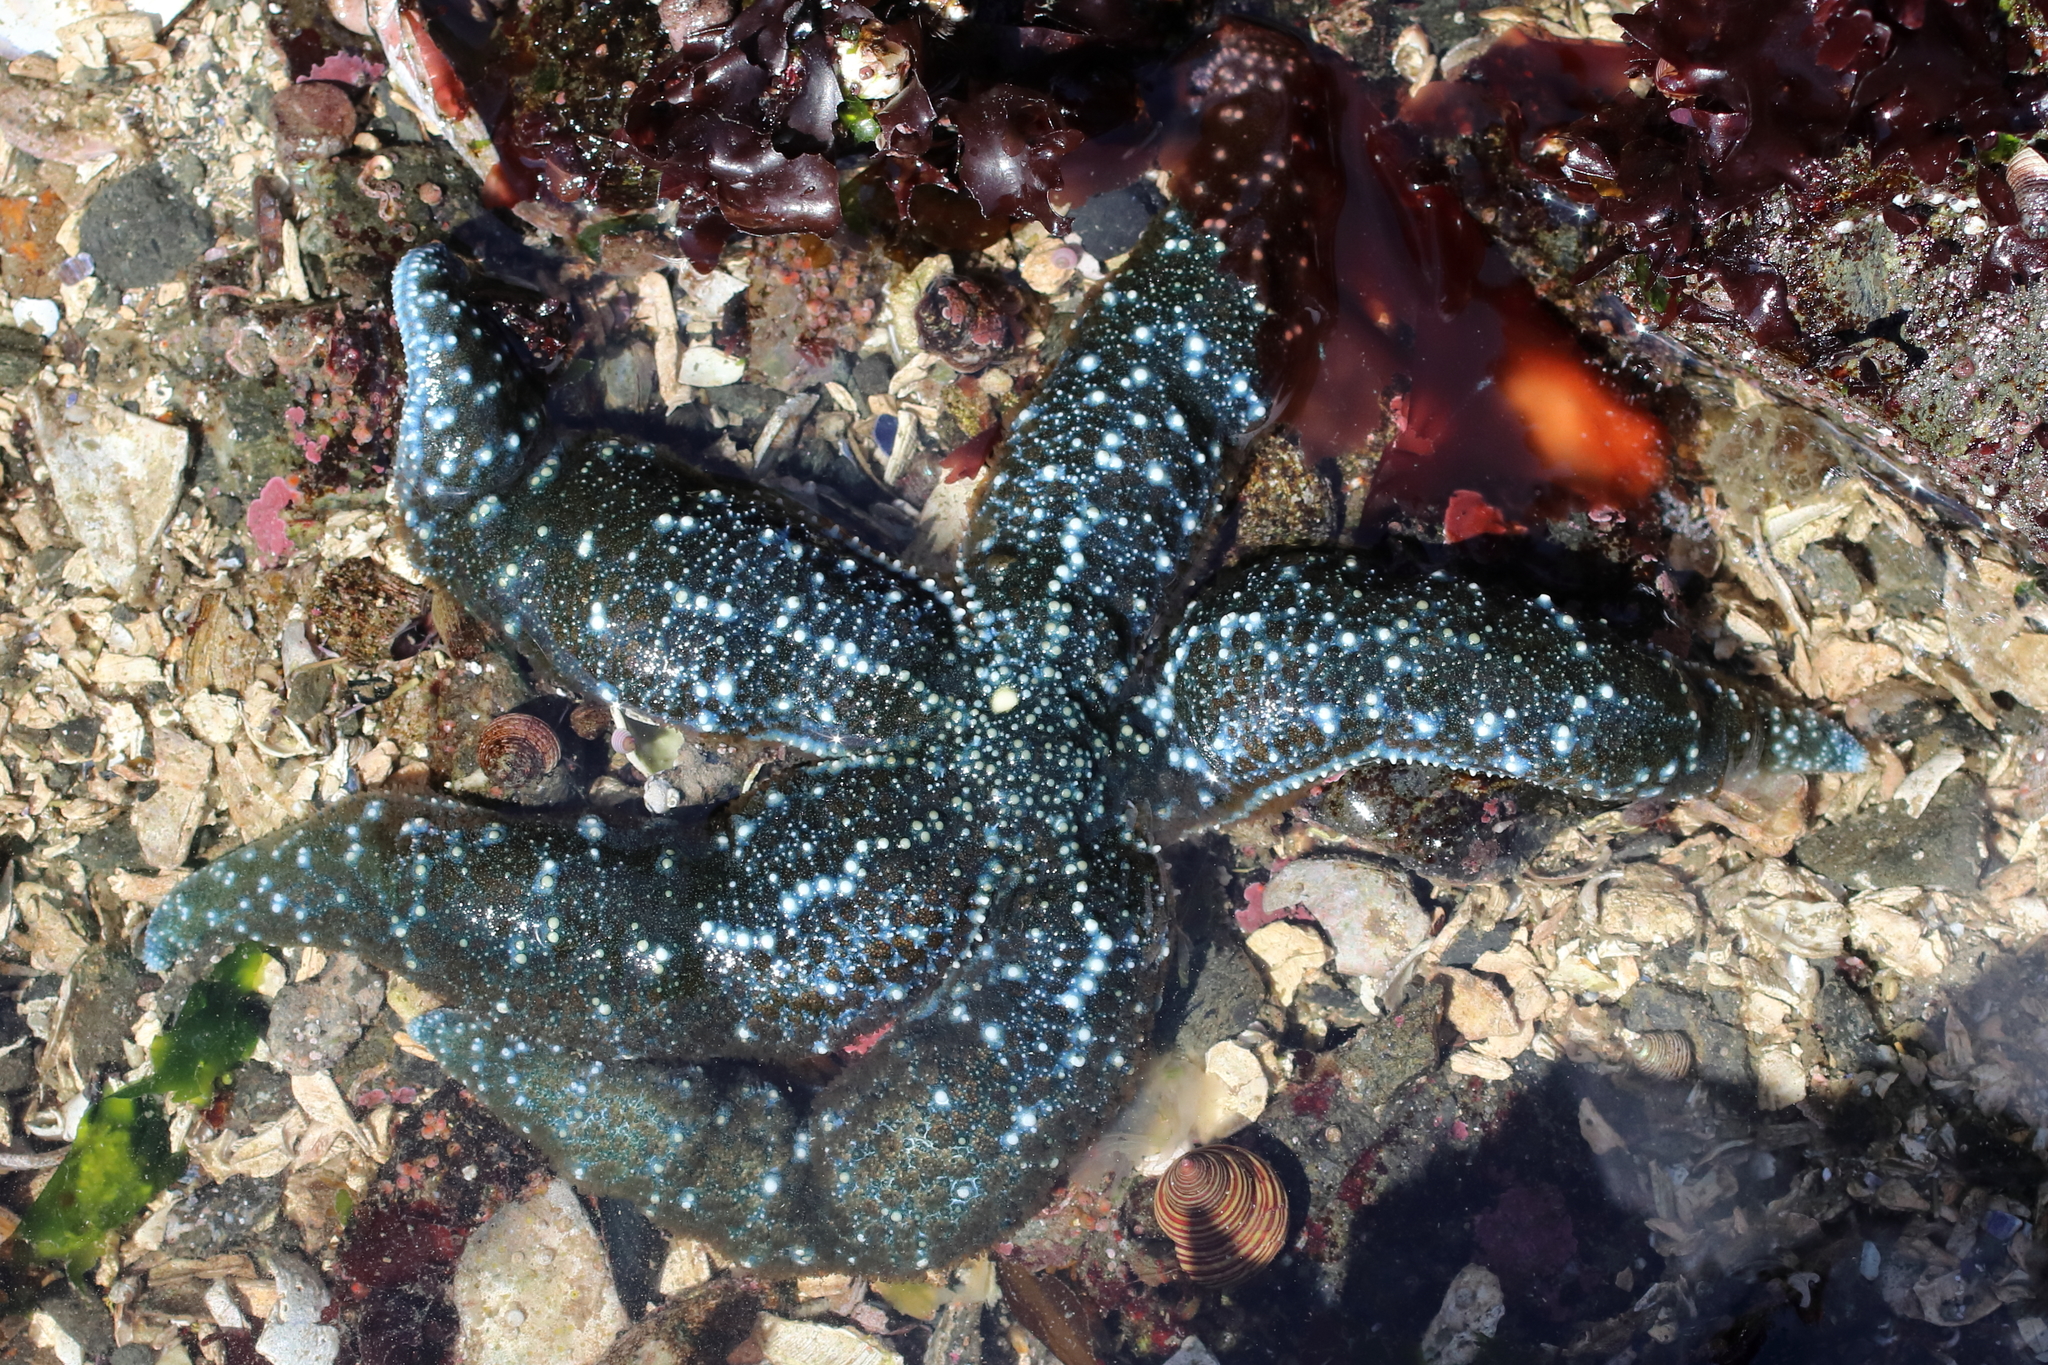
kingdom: Animalia
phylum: Echinodermata
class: Asteroidea
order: Forcipulatida
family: Asteriidae
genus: Evasterias
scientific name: Evasterias troschelii
